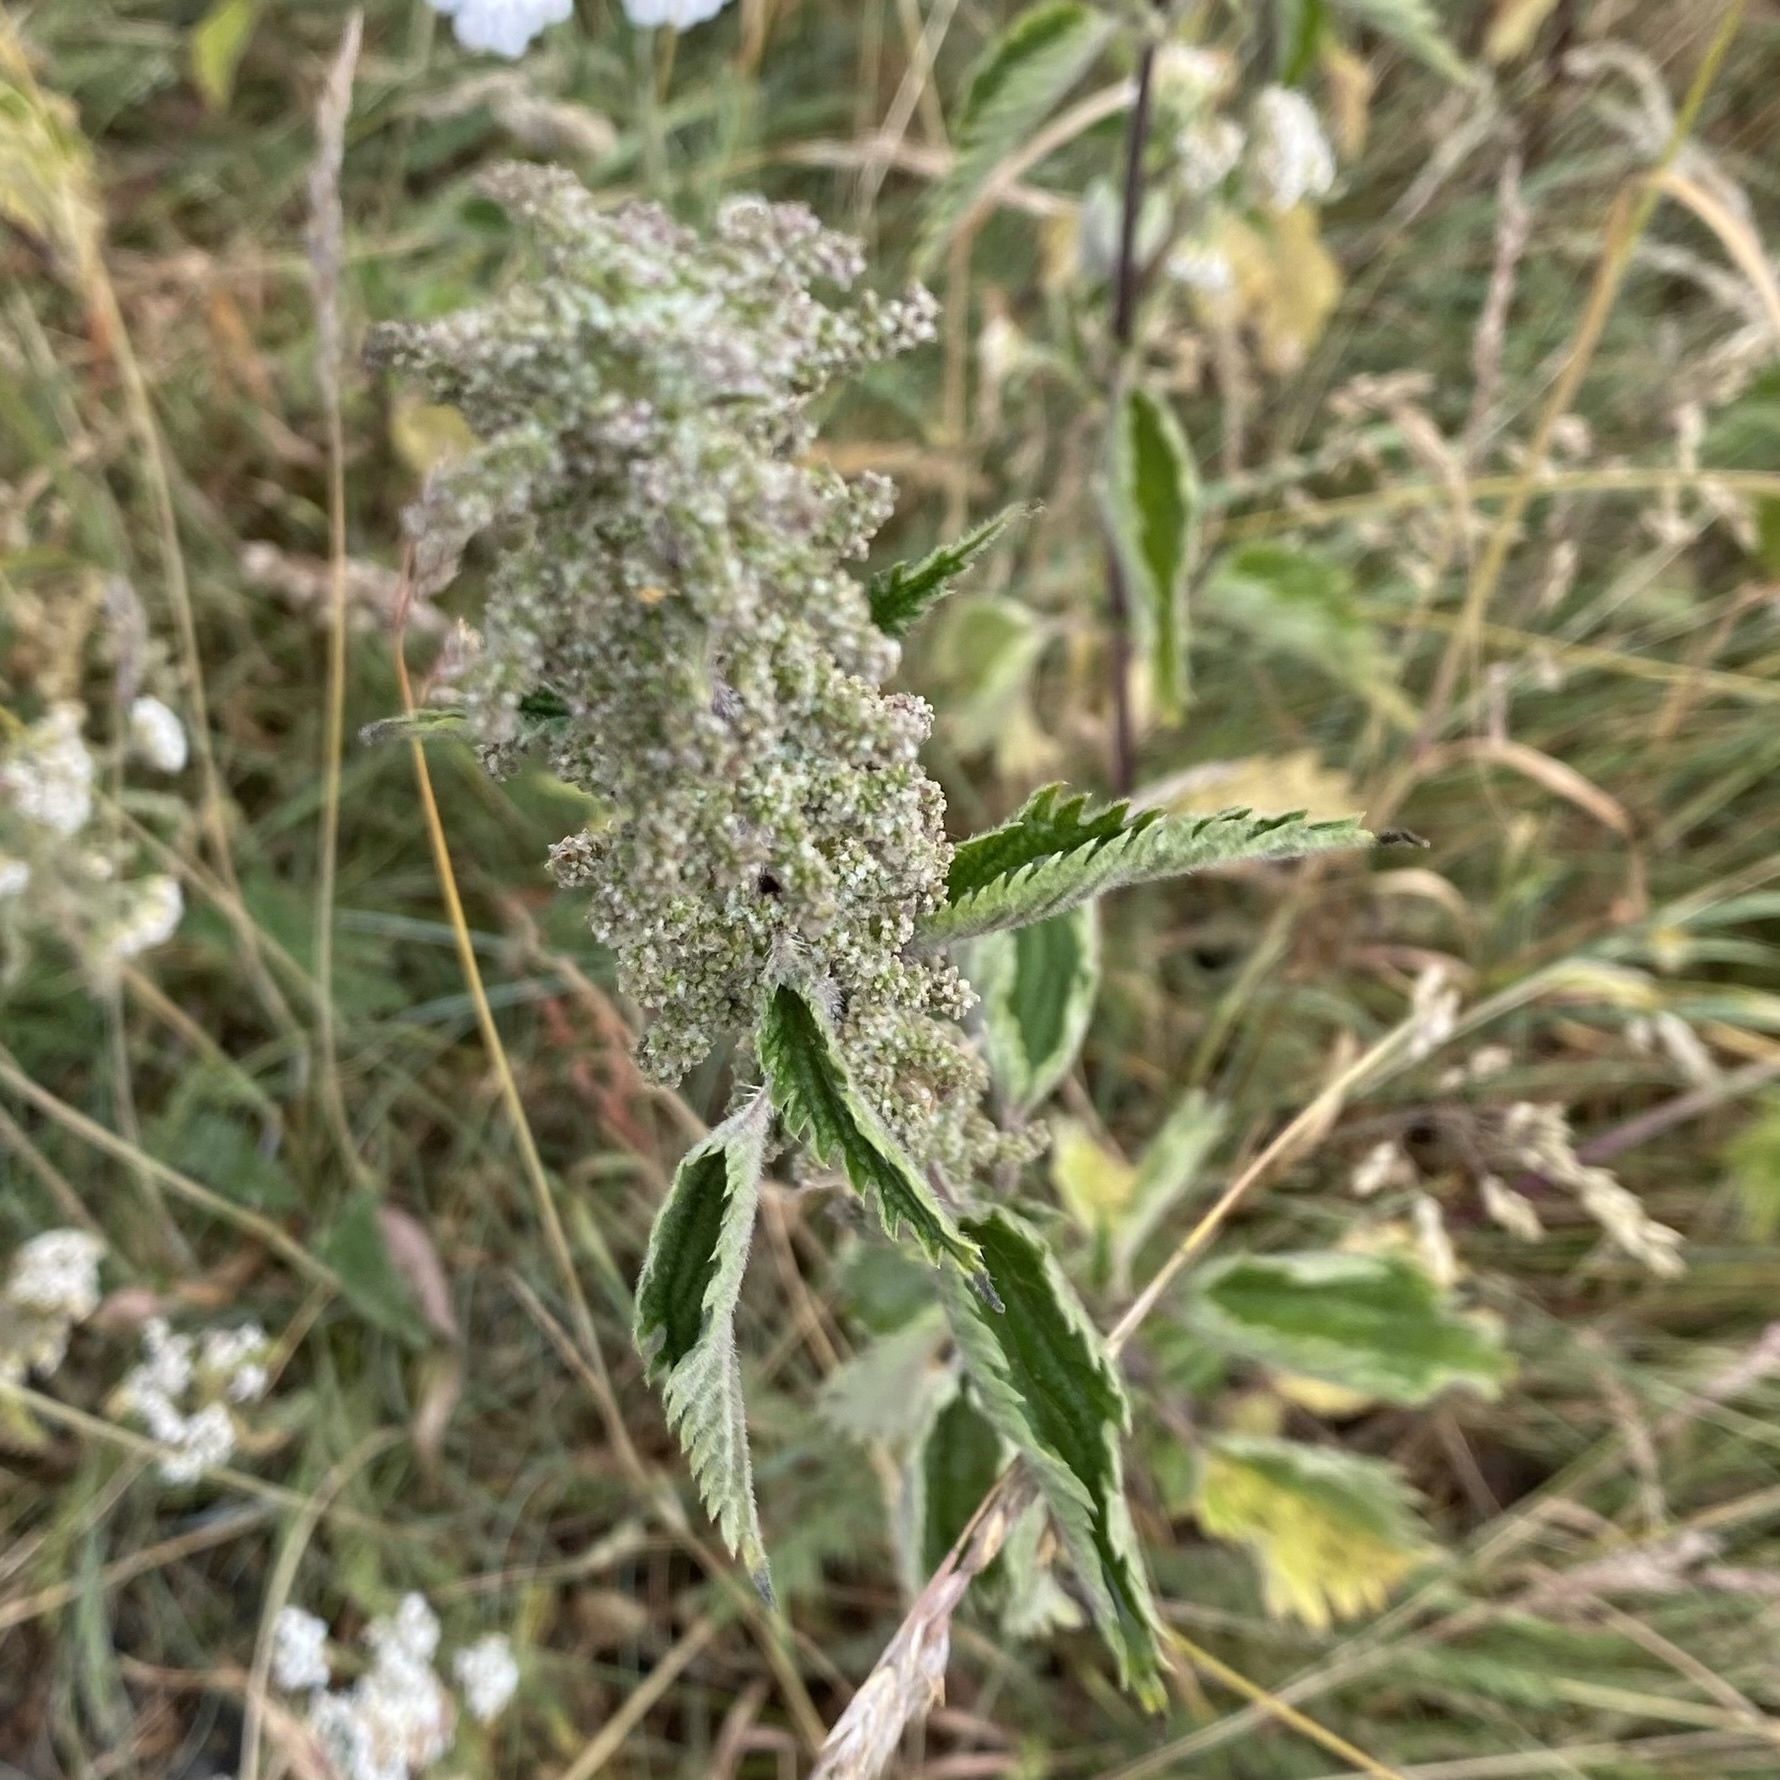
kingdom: Plantae
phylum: Tracheophyta
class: Magnoliopsida
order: Rosales
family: Urticaceae
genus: Urtica
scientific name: Urtica dioica
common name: Common nettle
